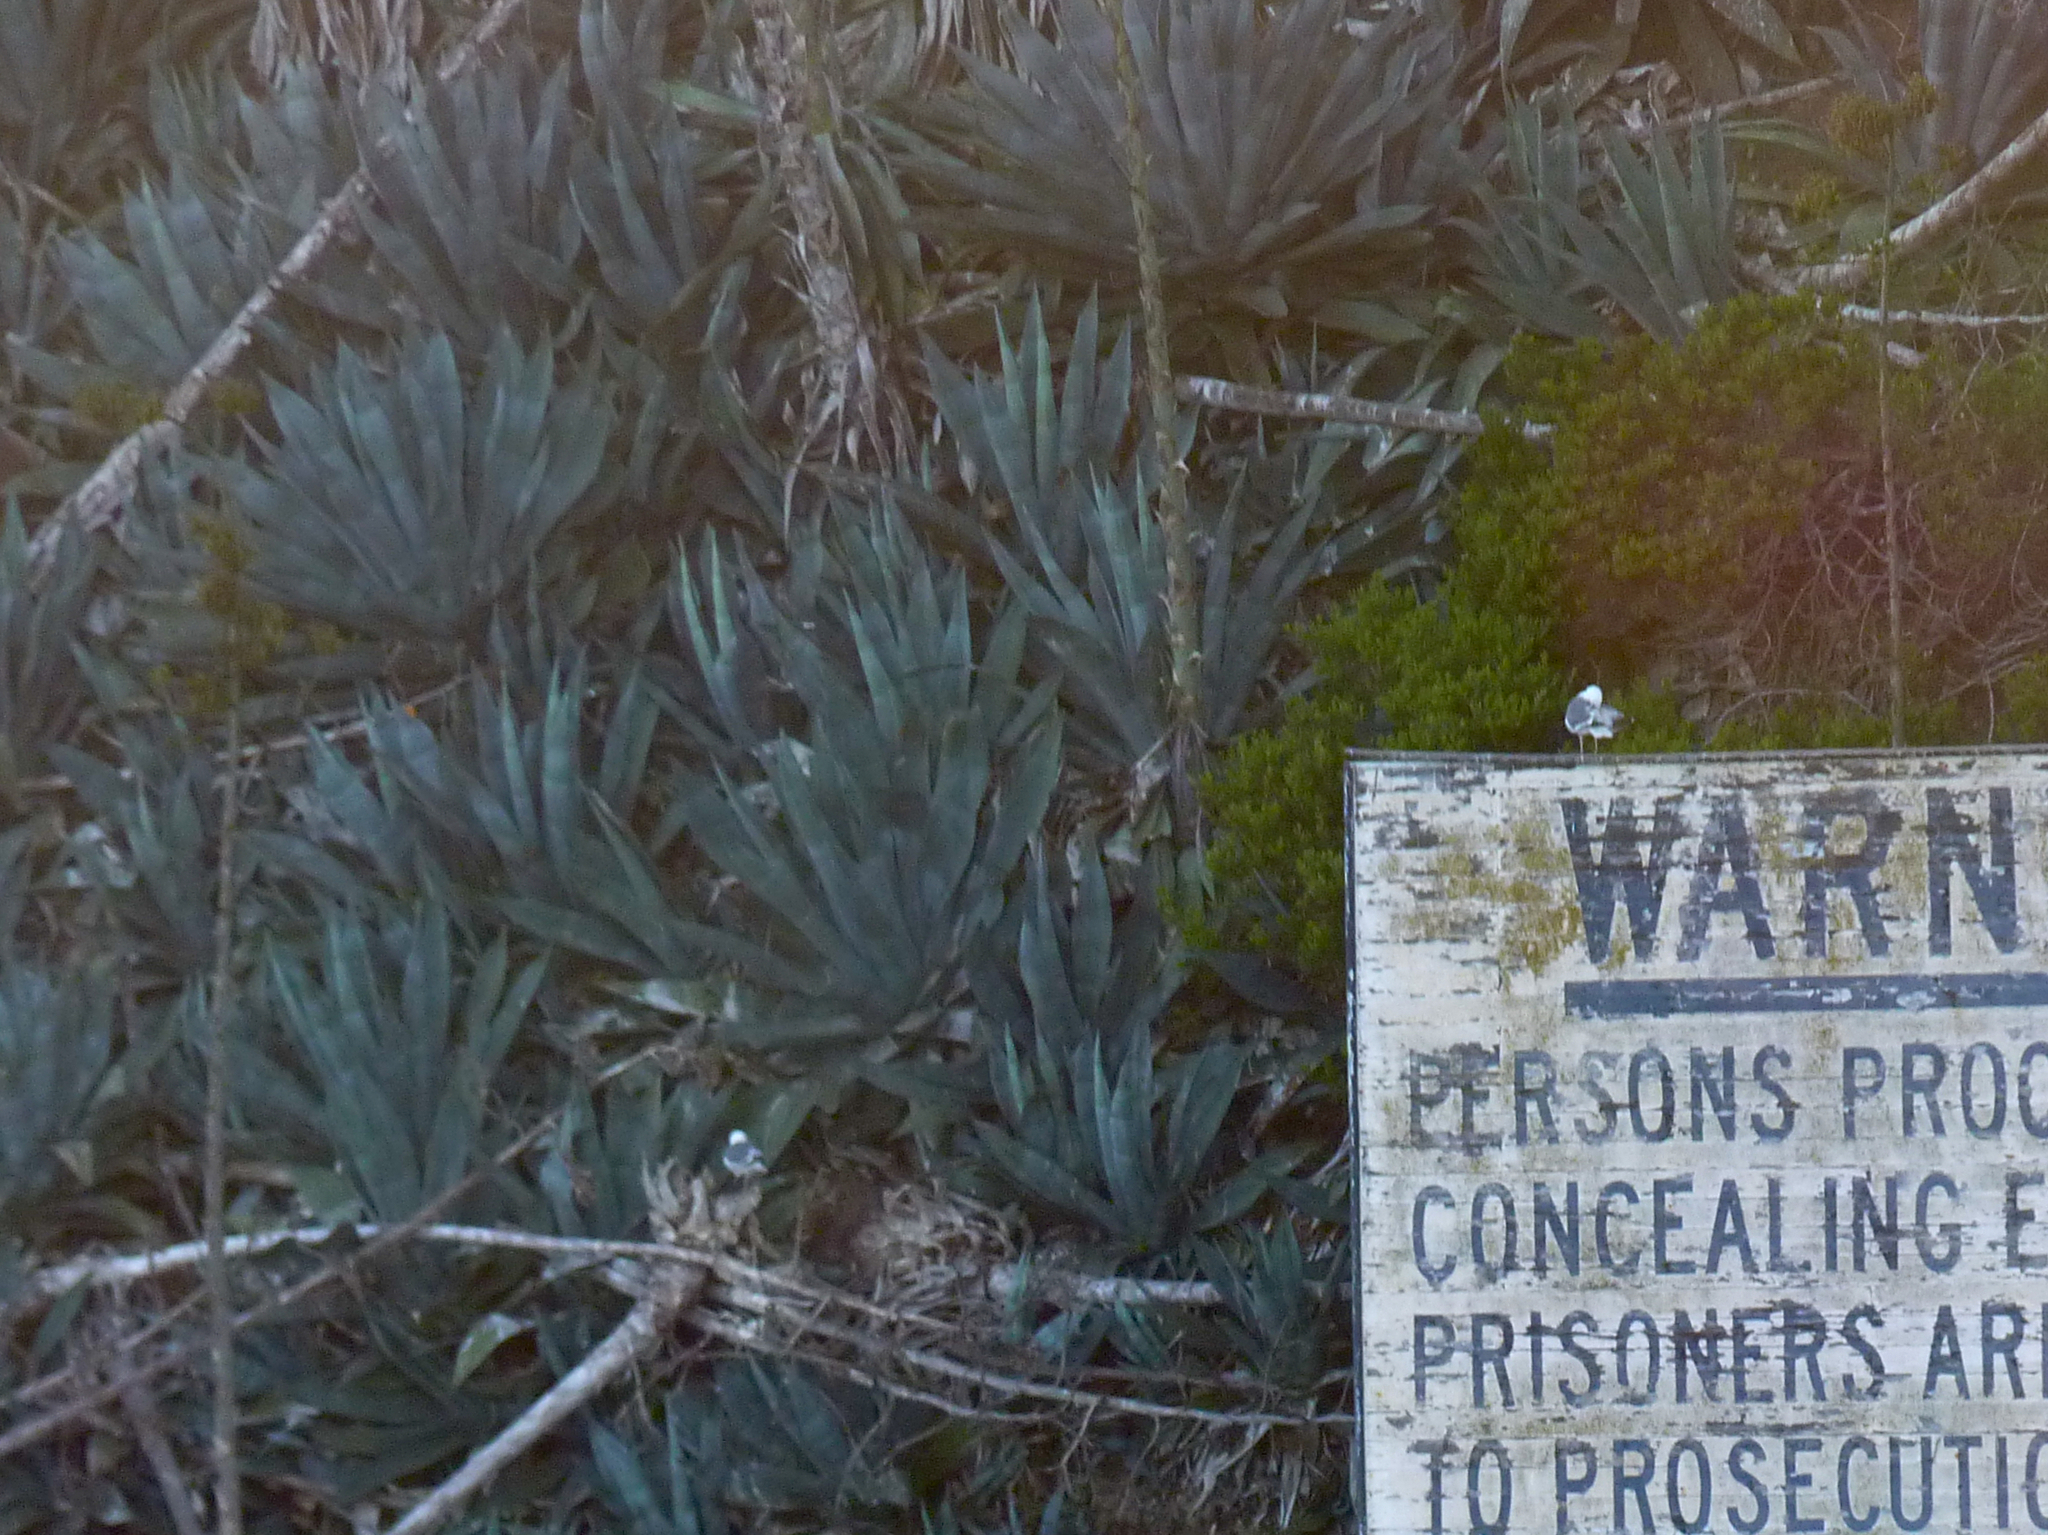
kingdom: Plantae
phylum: Tracheophyta
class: Liliopsida
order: Asparagales
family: Asparagaceae
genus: Agave
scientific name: Agave americana
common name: Centuryplant
